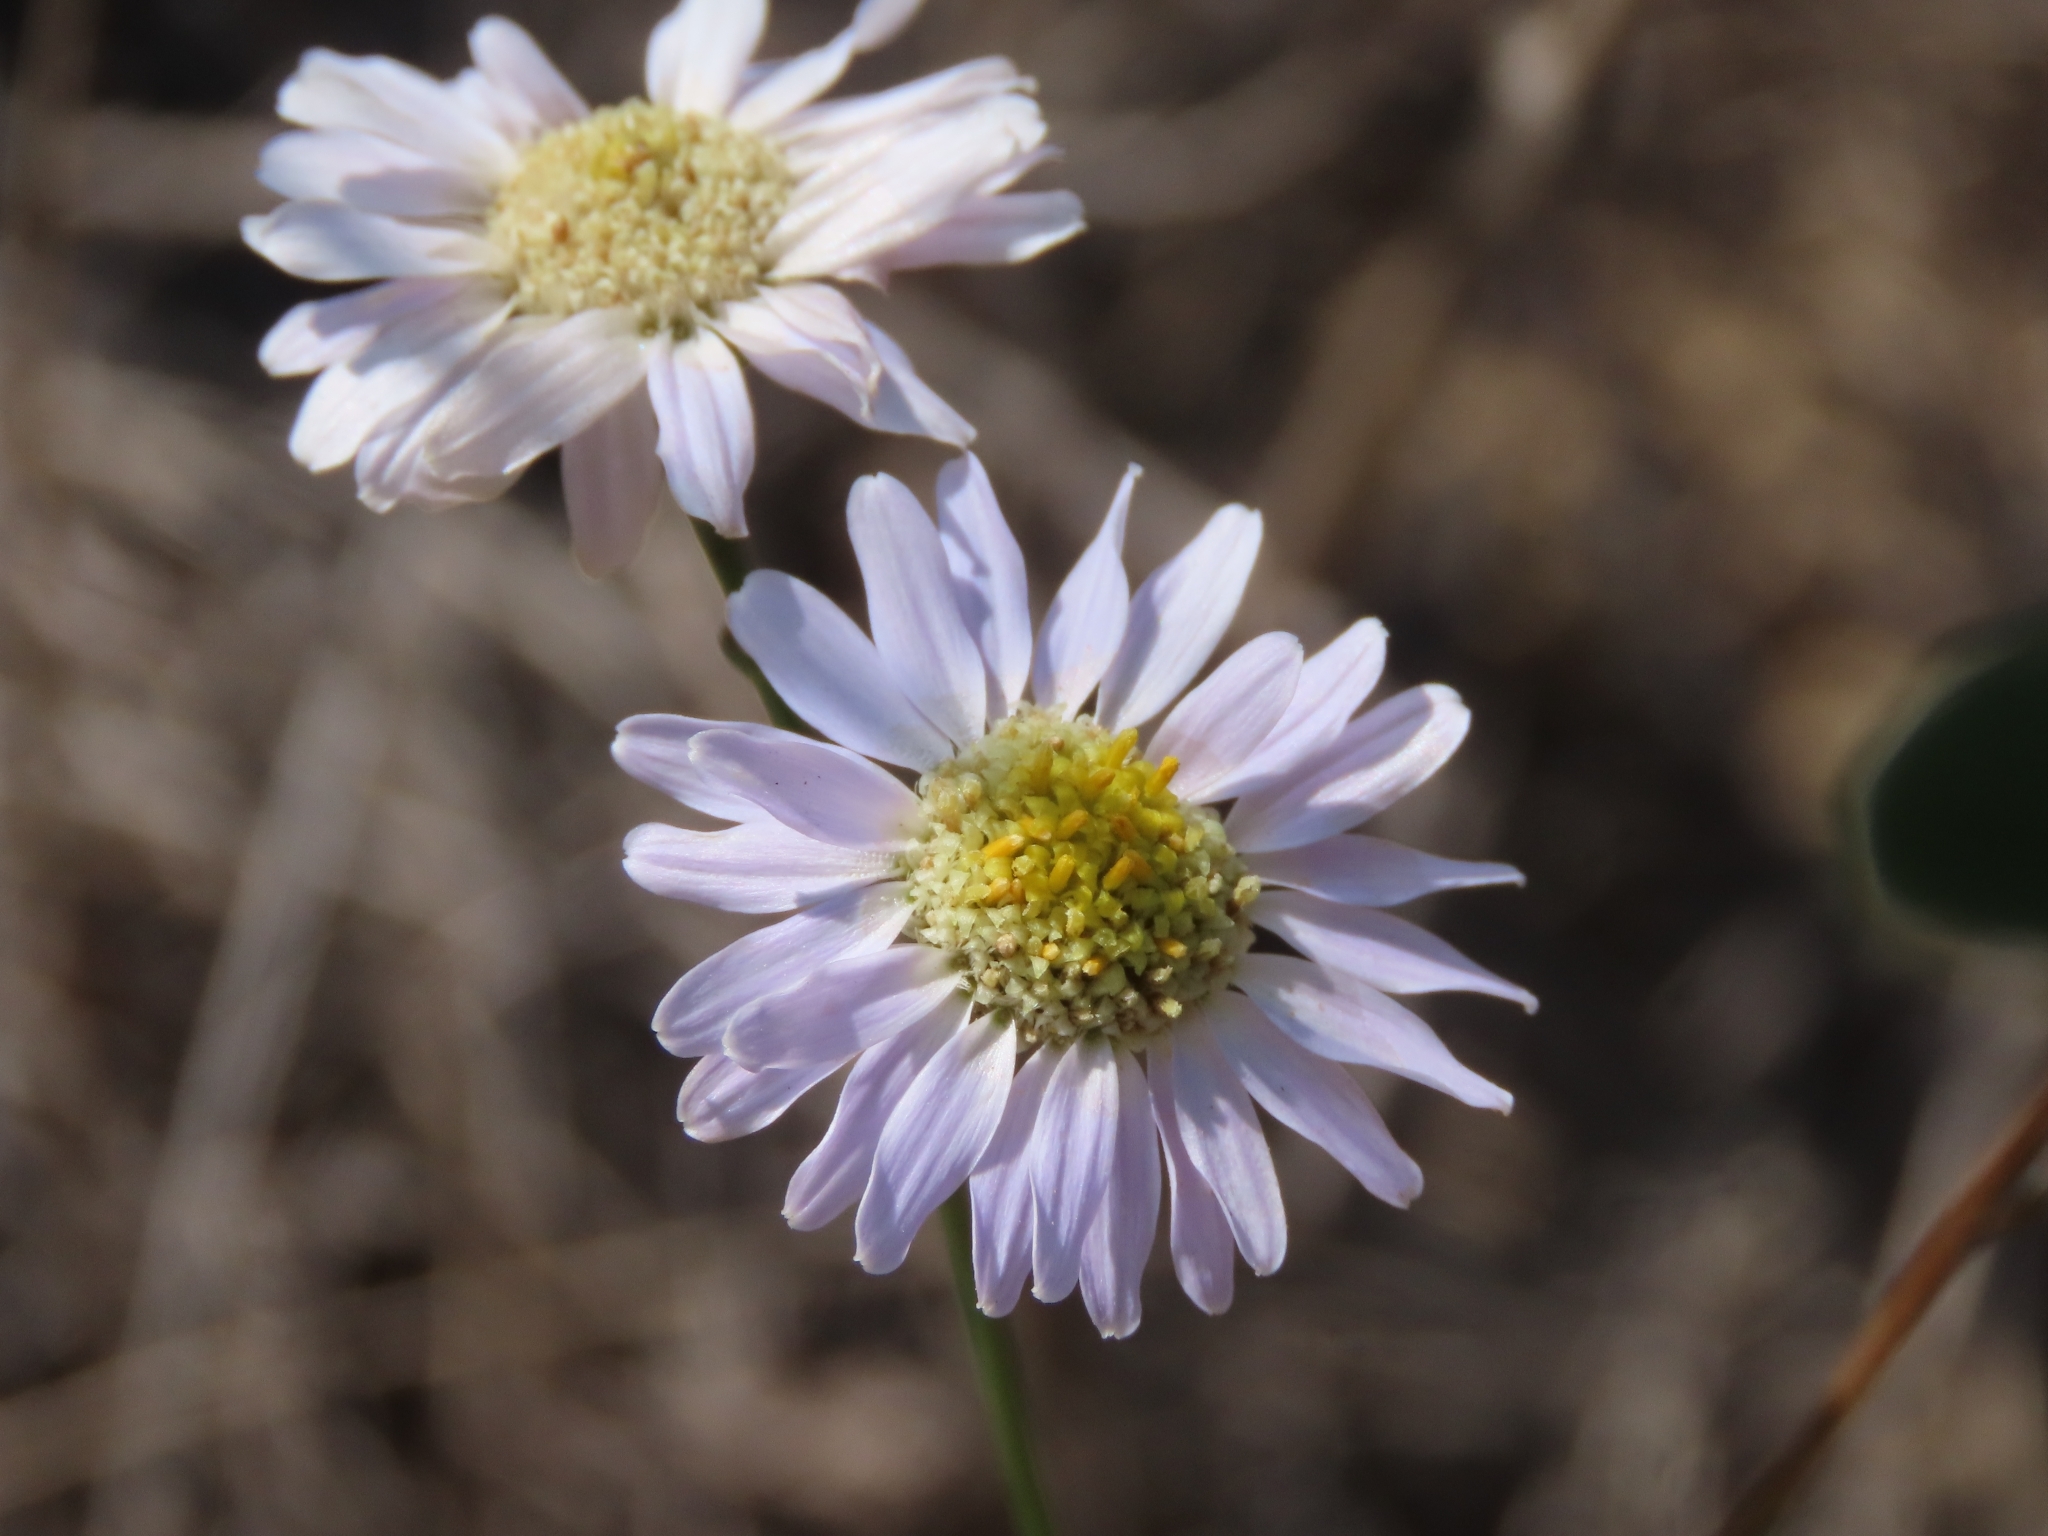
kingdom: Plantae
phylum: Tracheophyta
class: Magnoliopsida
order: Asterales
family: Asteraceae
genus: Heteropappus
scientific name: Heteropappus ciliosus
